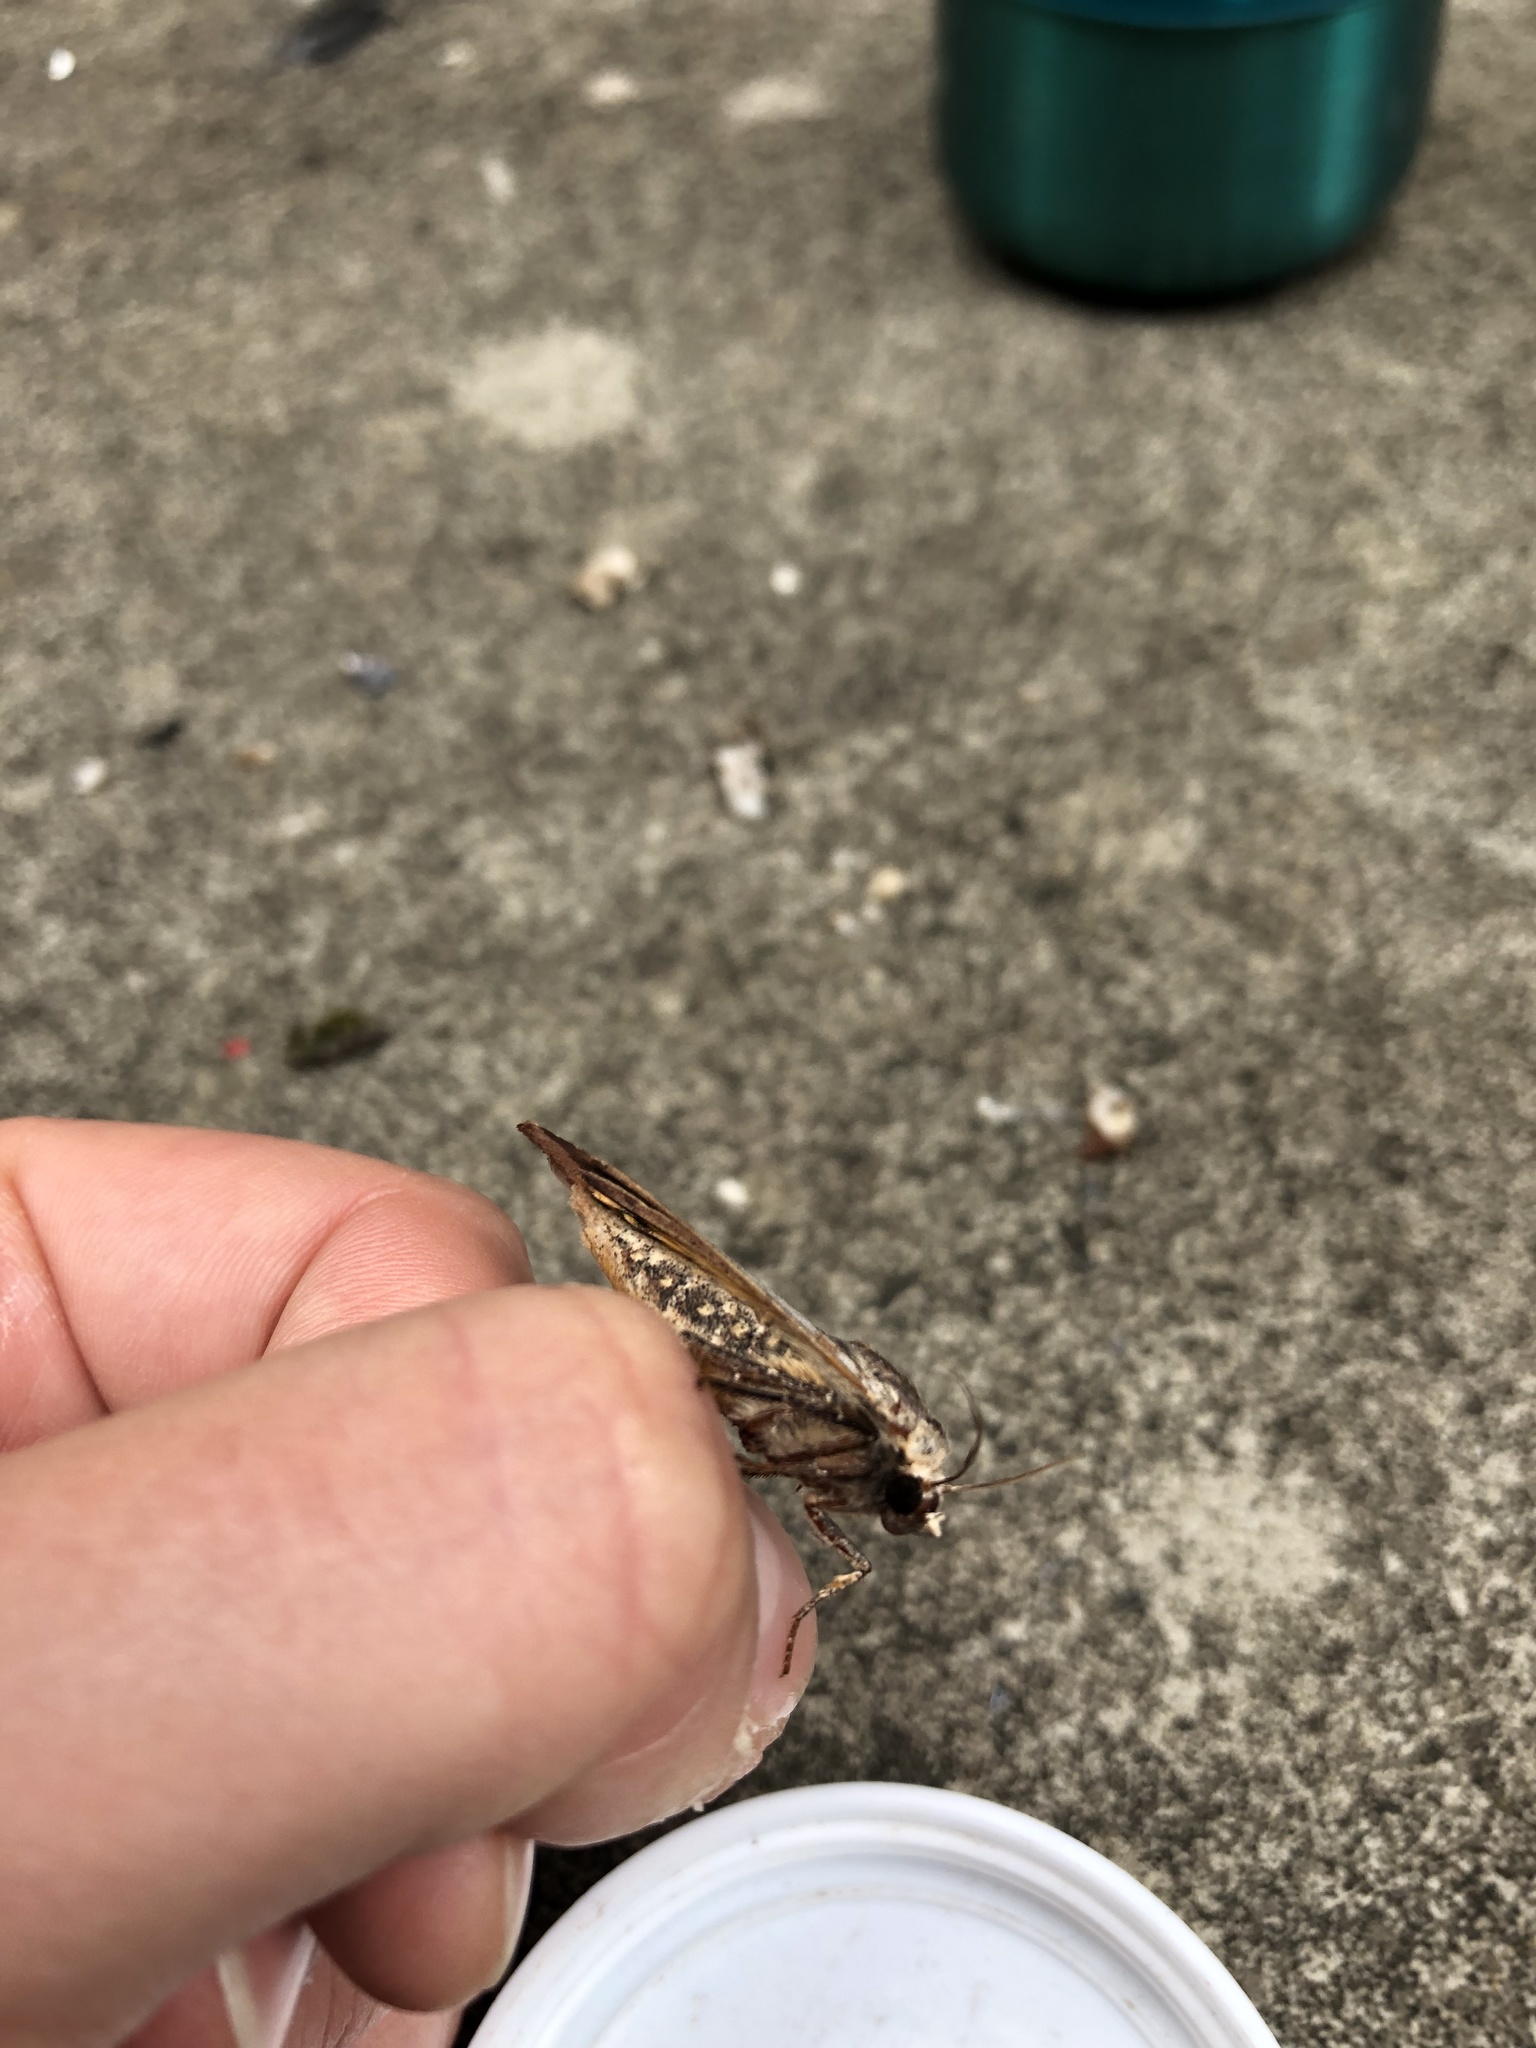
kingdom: Animalia
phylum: Arthropoda
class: Insecta
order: Lepidoptera
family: Noctuidae
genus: Noctua
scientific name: Noctua pronuba
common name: Large yellow underwing
